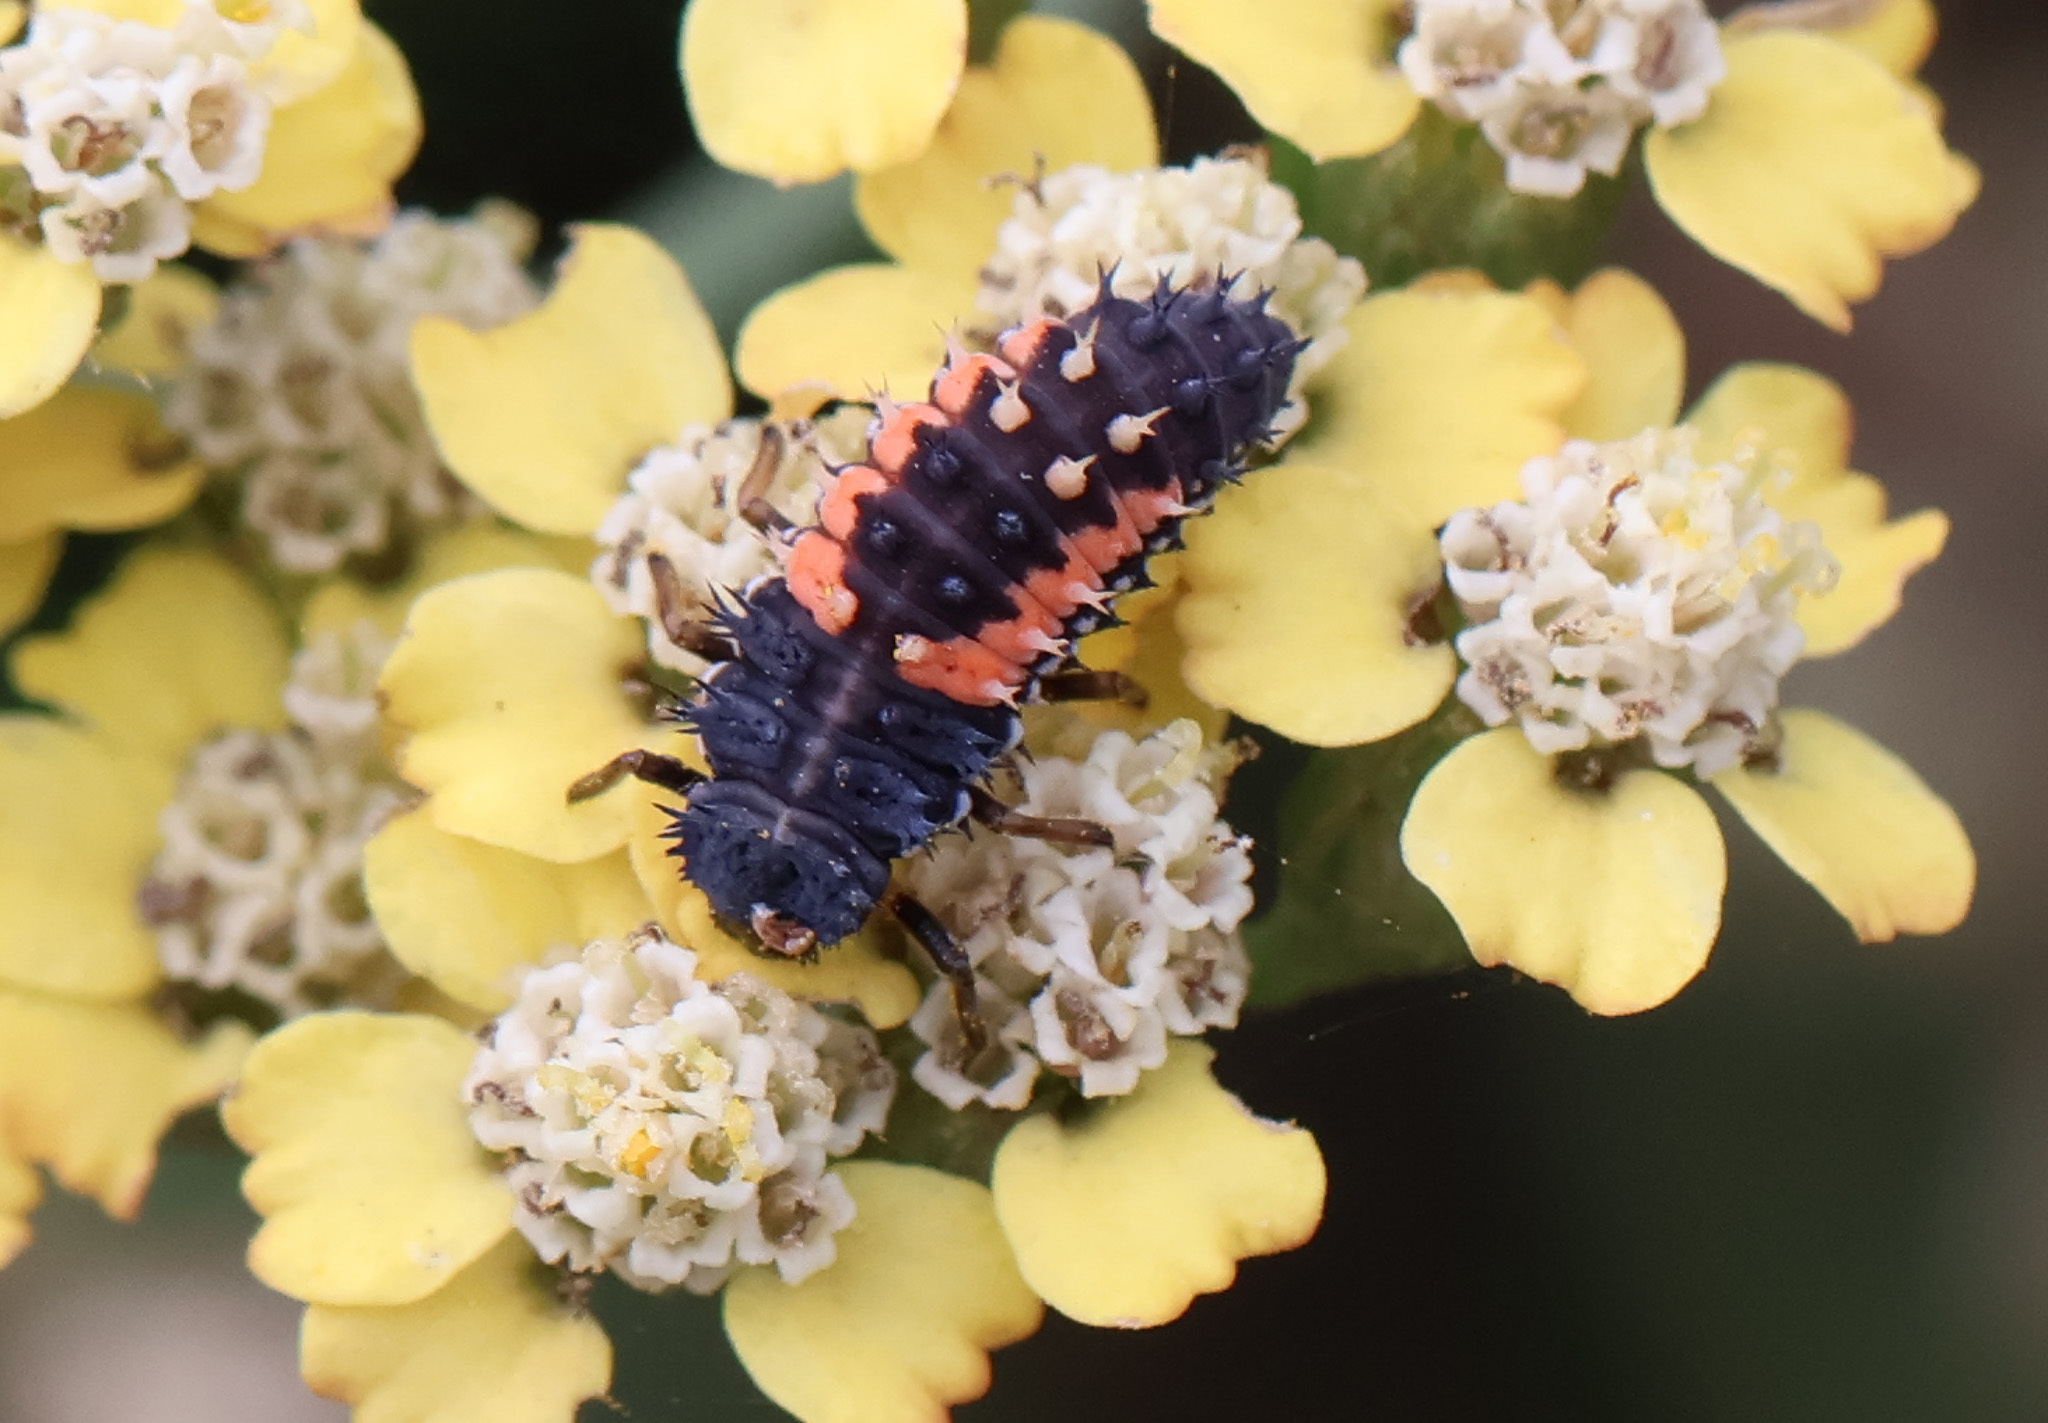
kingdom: Animalia
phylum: Arthropoda
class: Insecta
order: Coleoptera
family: Coccinellidae
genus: Harmonia
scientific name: Harmonia axyridis
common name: Harlequin ladybird
